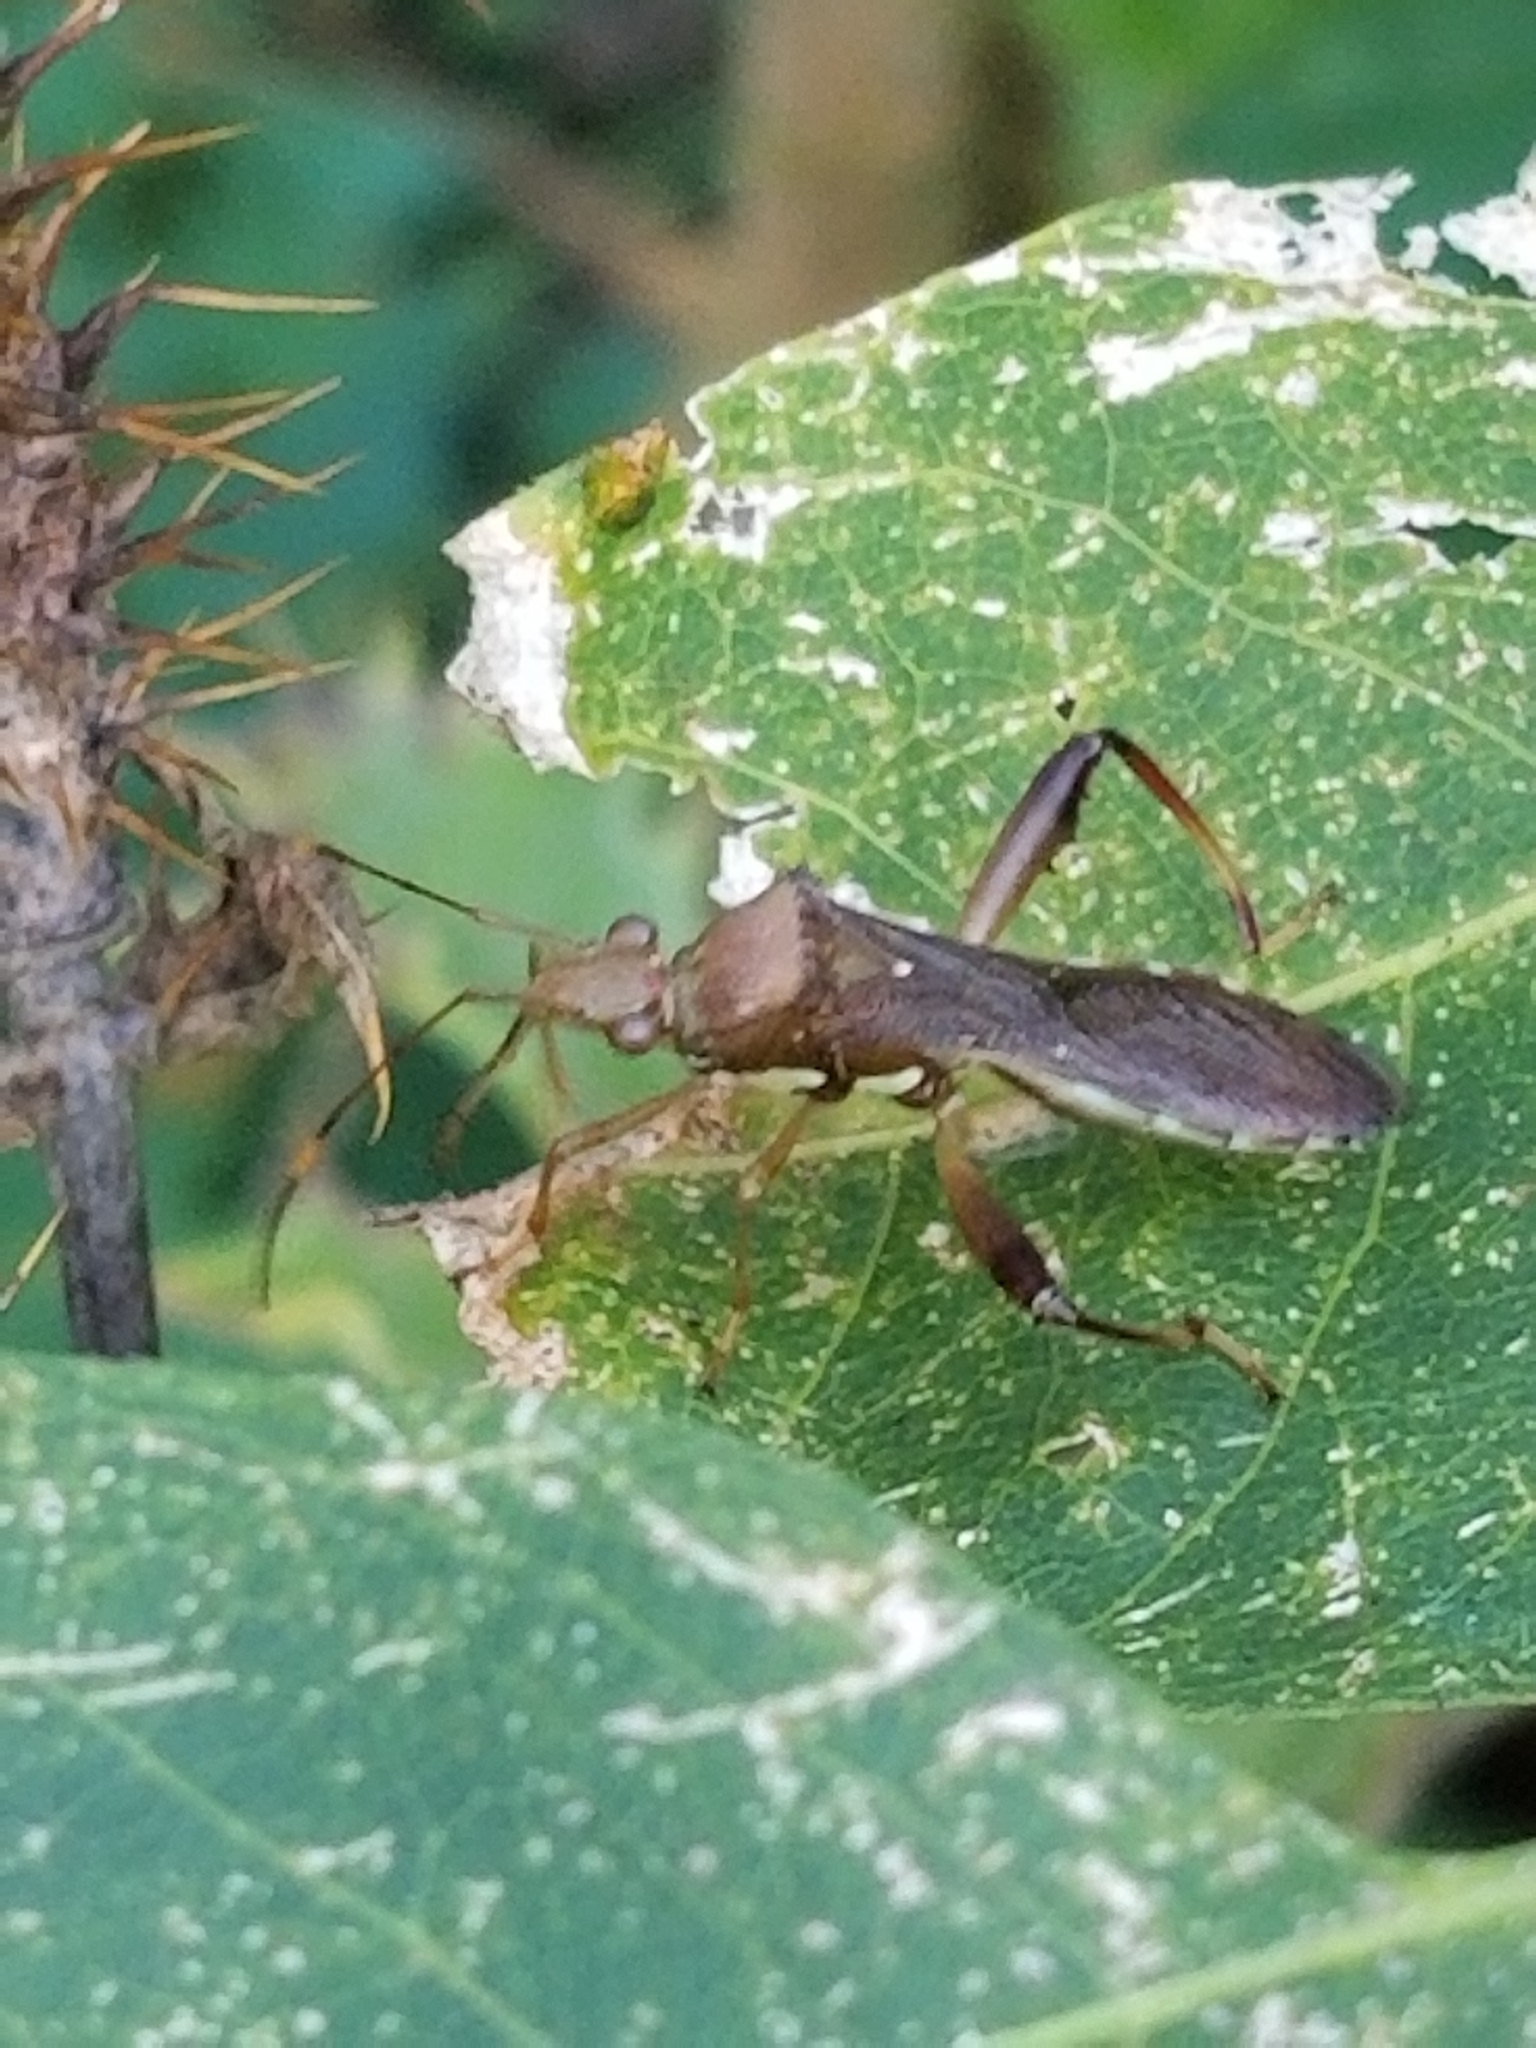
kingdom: Animalia
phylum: Arthropoda
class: Insecta
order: Hemiptera
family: Alydidae
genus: Hyalymenus
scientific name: Hyalymenus tarsatus
